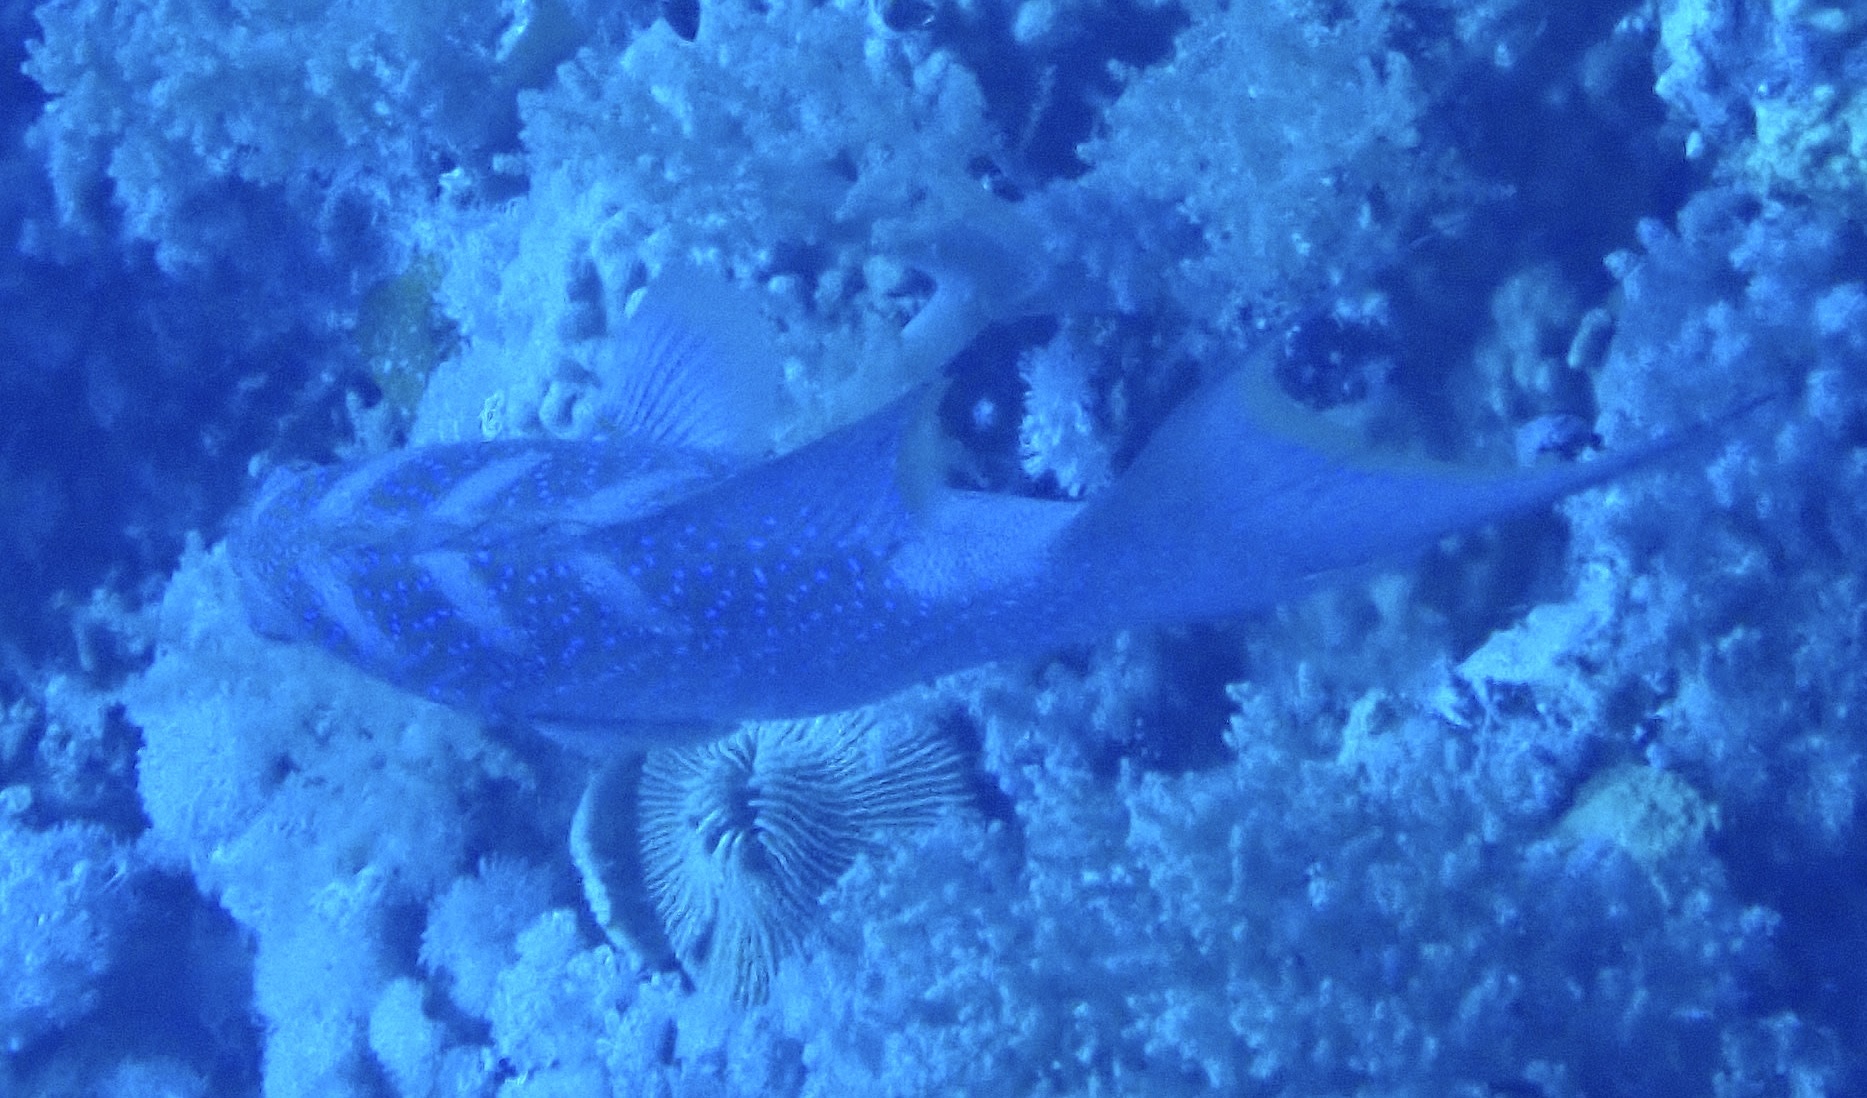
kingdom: Animalia
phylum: Chordata
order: Perciformes
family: Serranidae
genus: Variola
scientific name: Variola louti
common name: Yellow-edged lyretail
